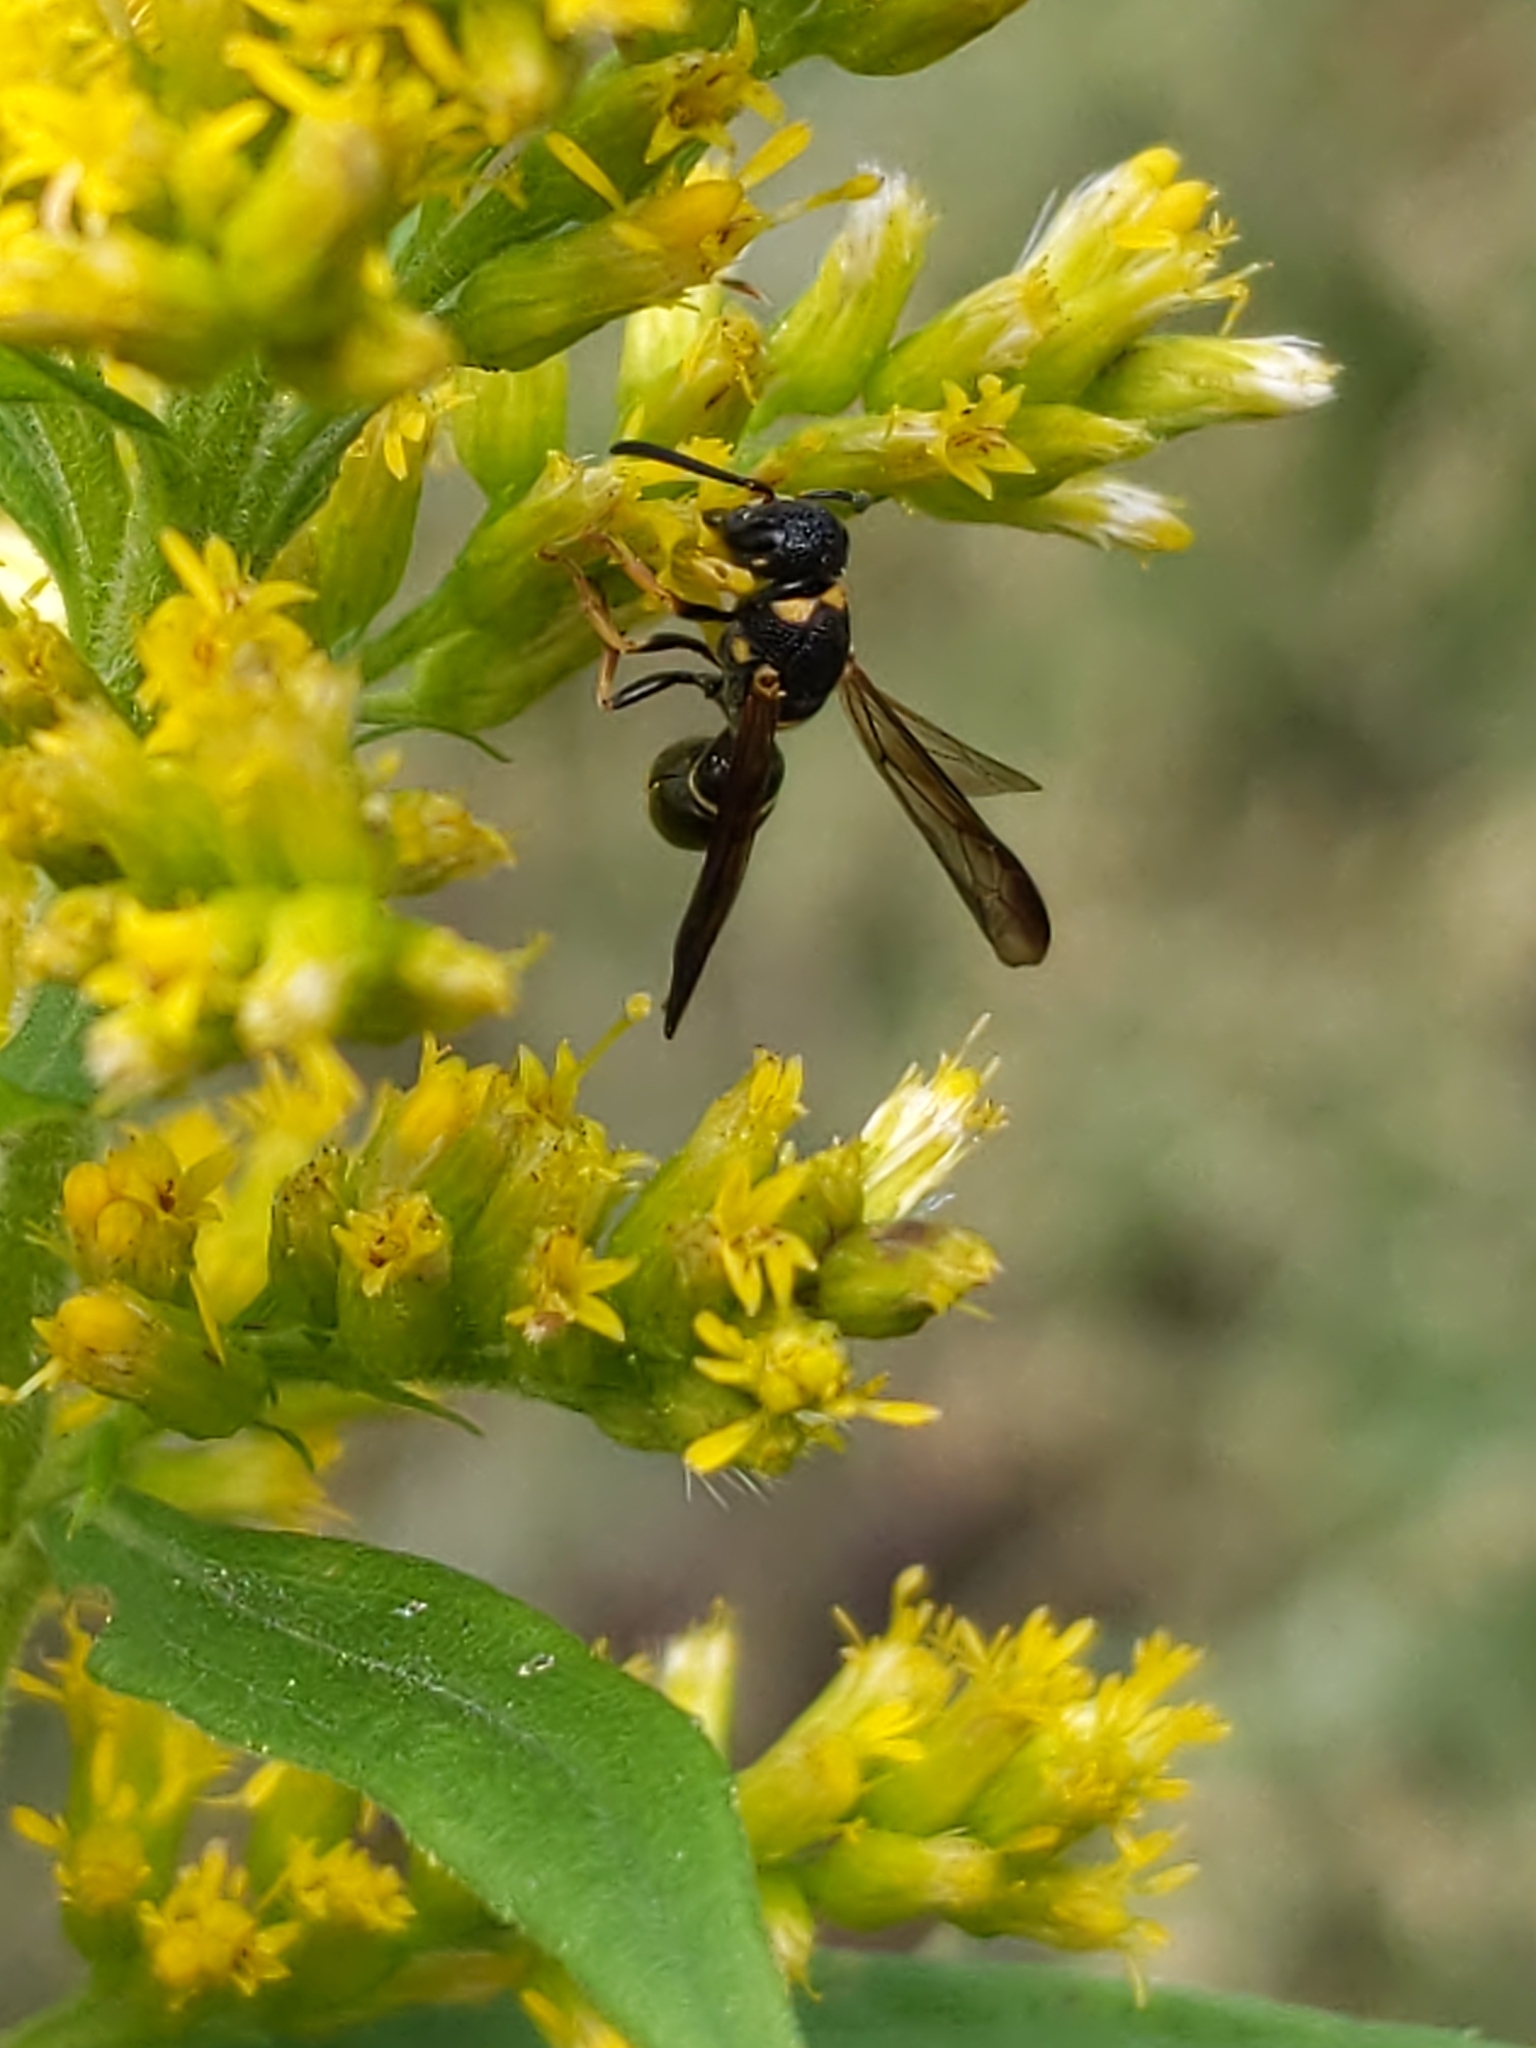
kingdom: Animalia
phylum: Arthropoda
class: Insecta
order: Hymenoptera
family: Eumenidae
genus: Parancistrocerus
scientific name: Parancistrocerus perennis
